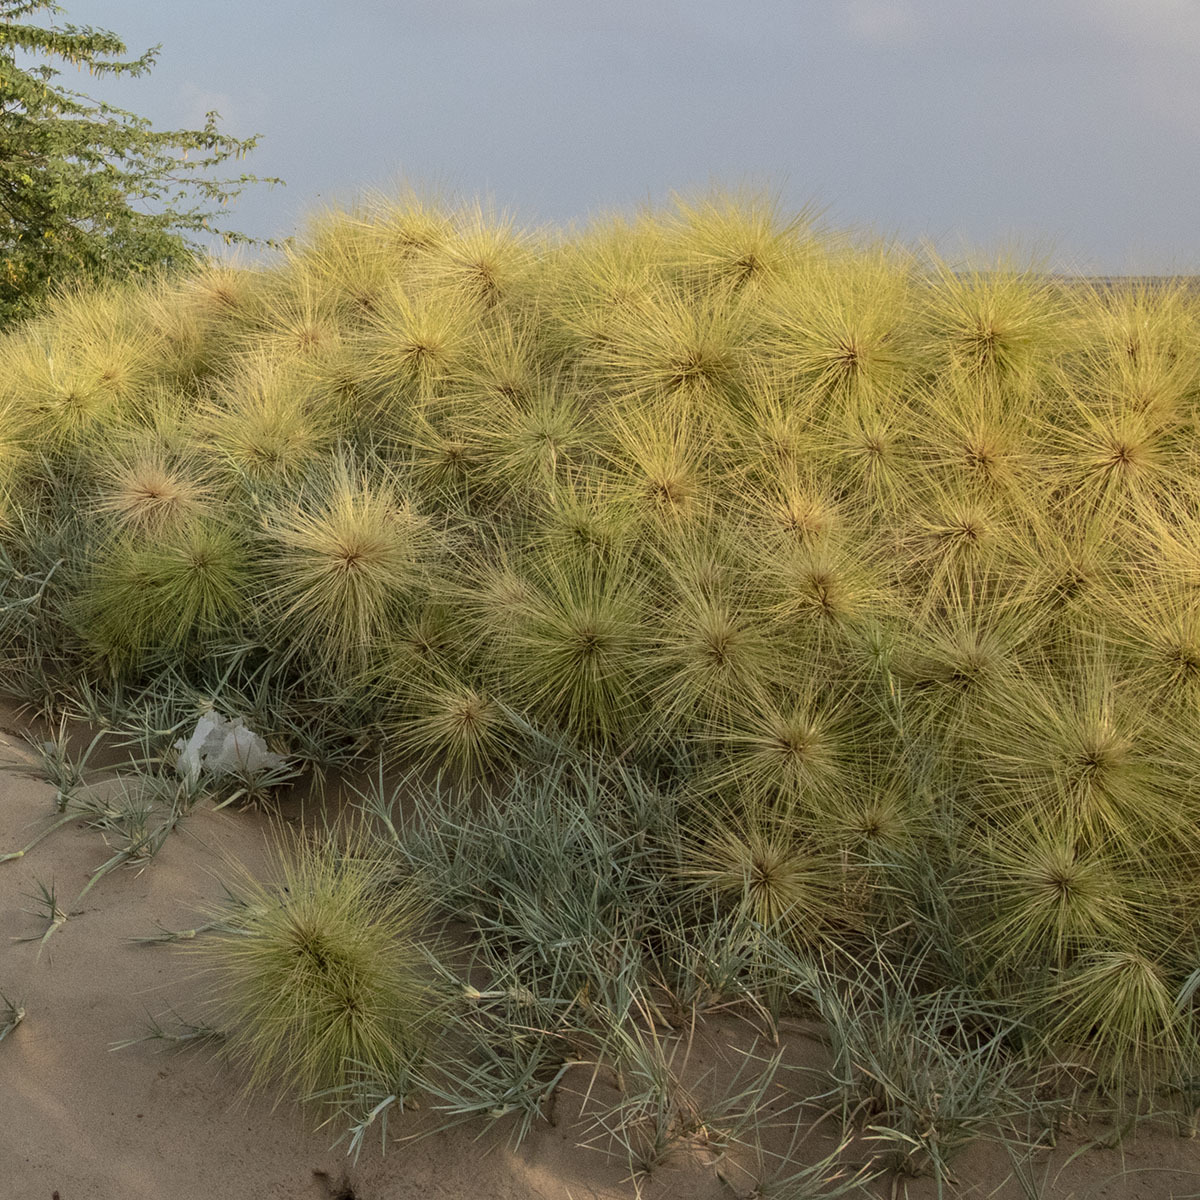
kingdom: Plantae
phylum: Tracheophyta
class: Liliopsida
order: Poales
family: Poaceae
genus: Spinifex
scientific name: Spinifex littoreus
